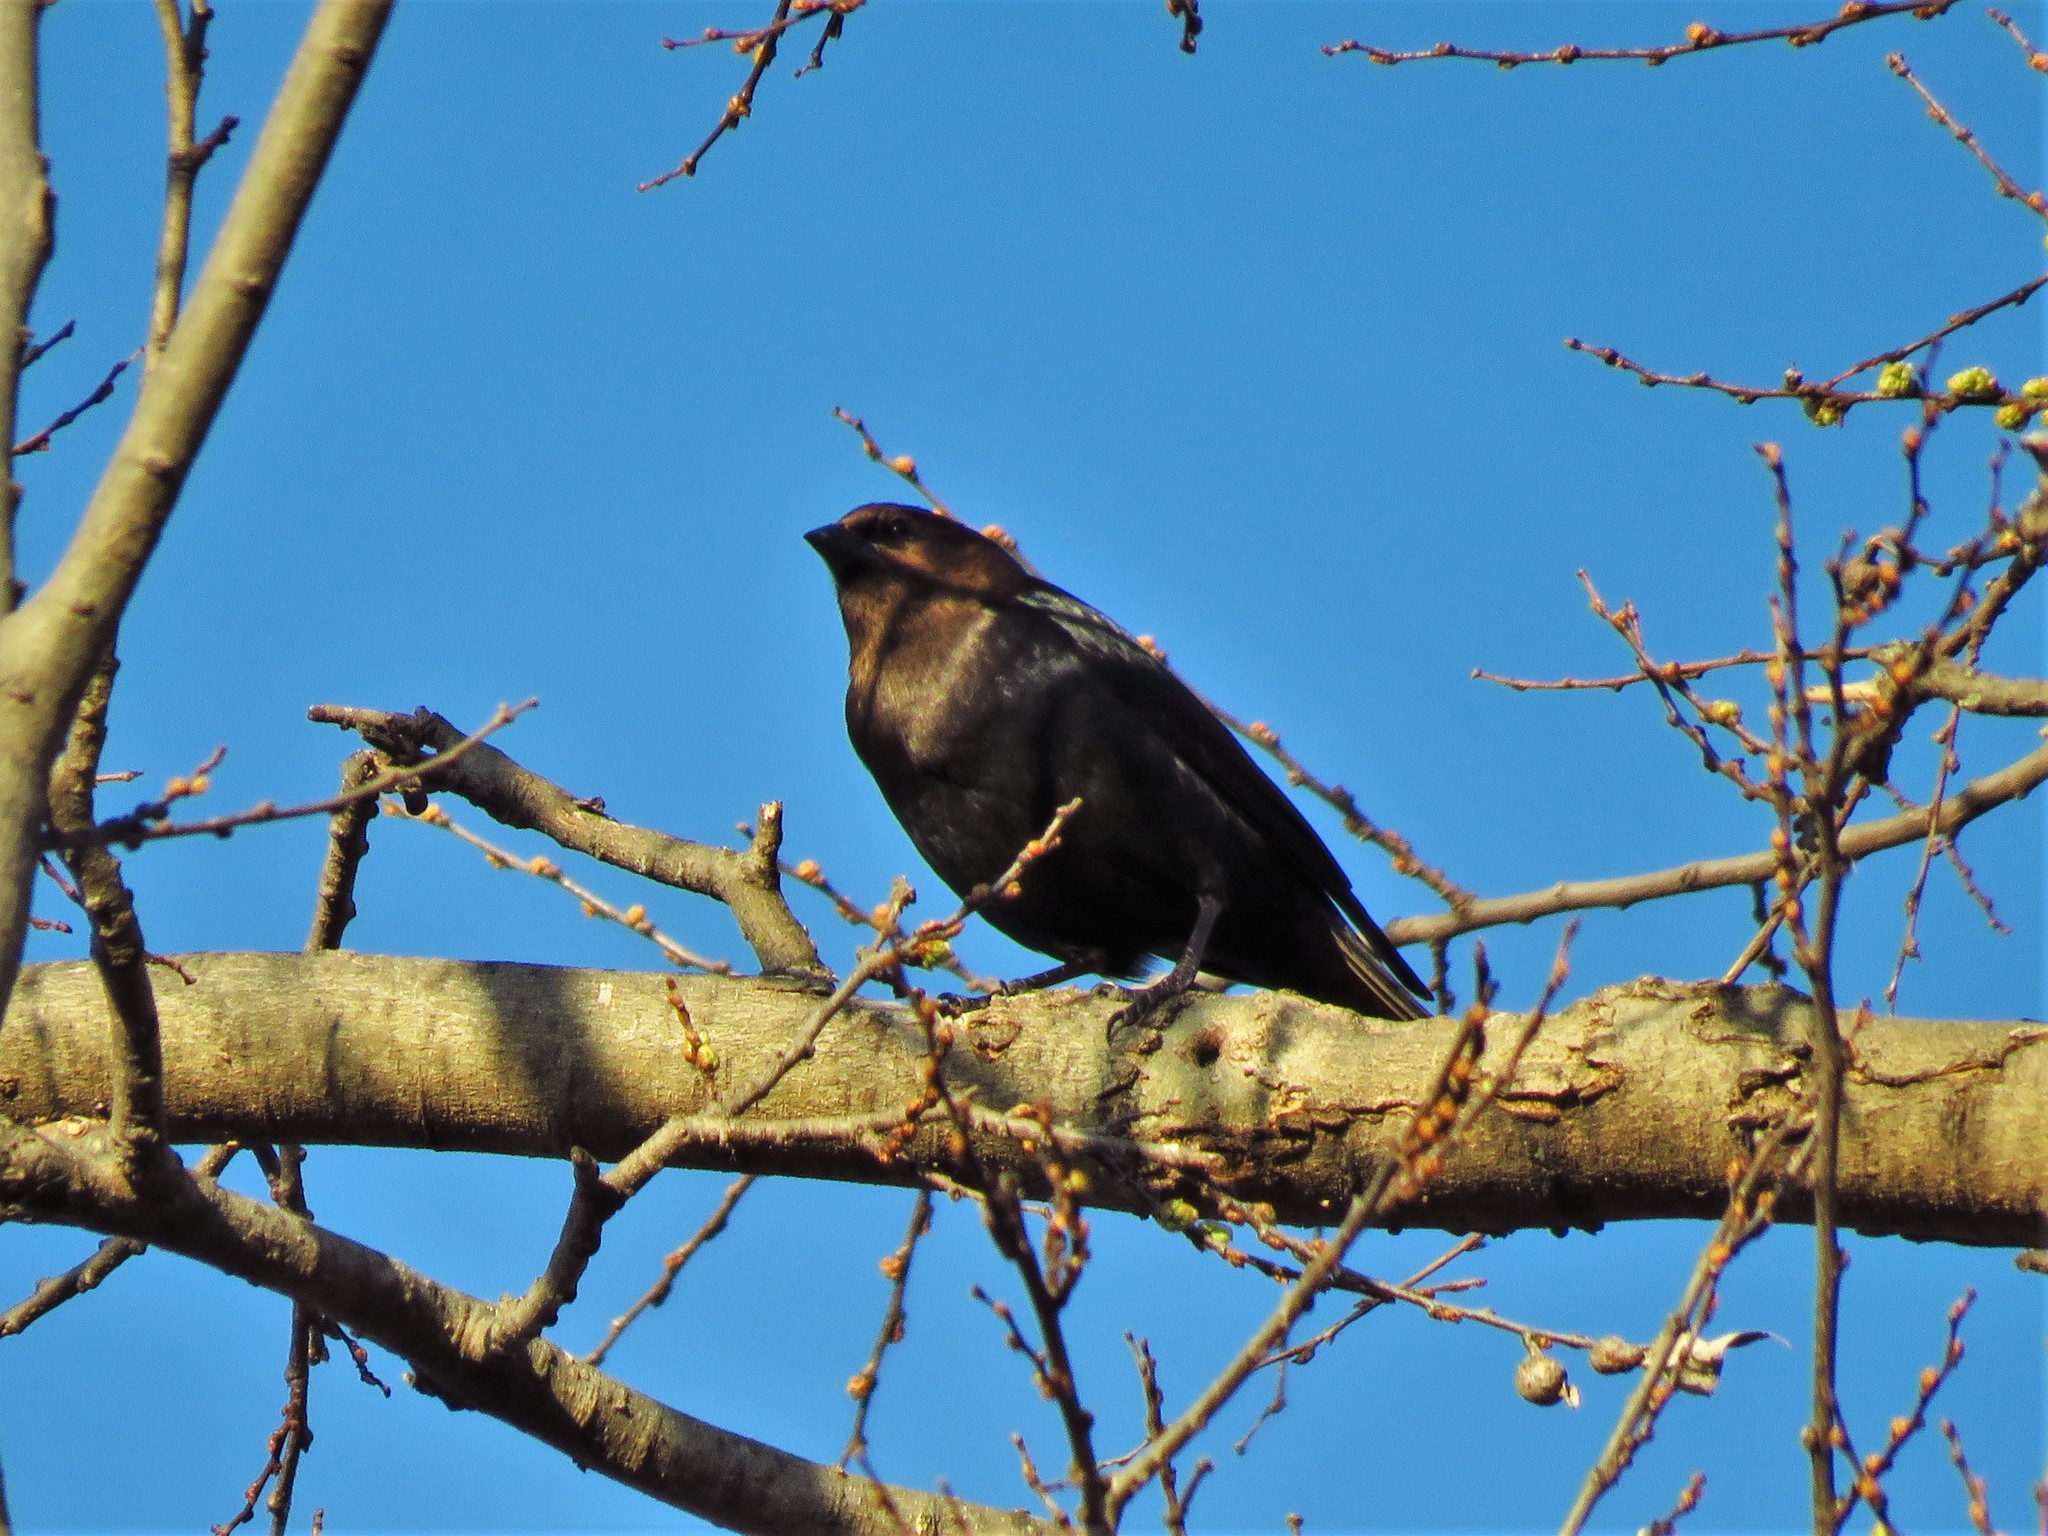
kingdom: Animalia
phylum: Chordata
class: Aves
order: Passeriformes
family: Icteridae
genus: Molothrus
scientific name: Molothrus ater
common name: Brown-headed cowbird
